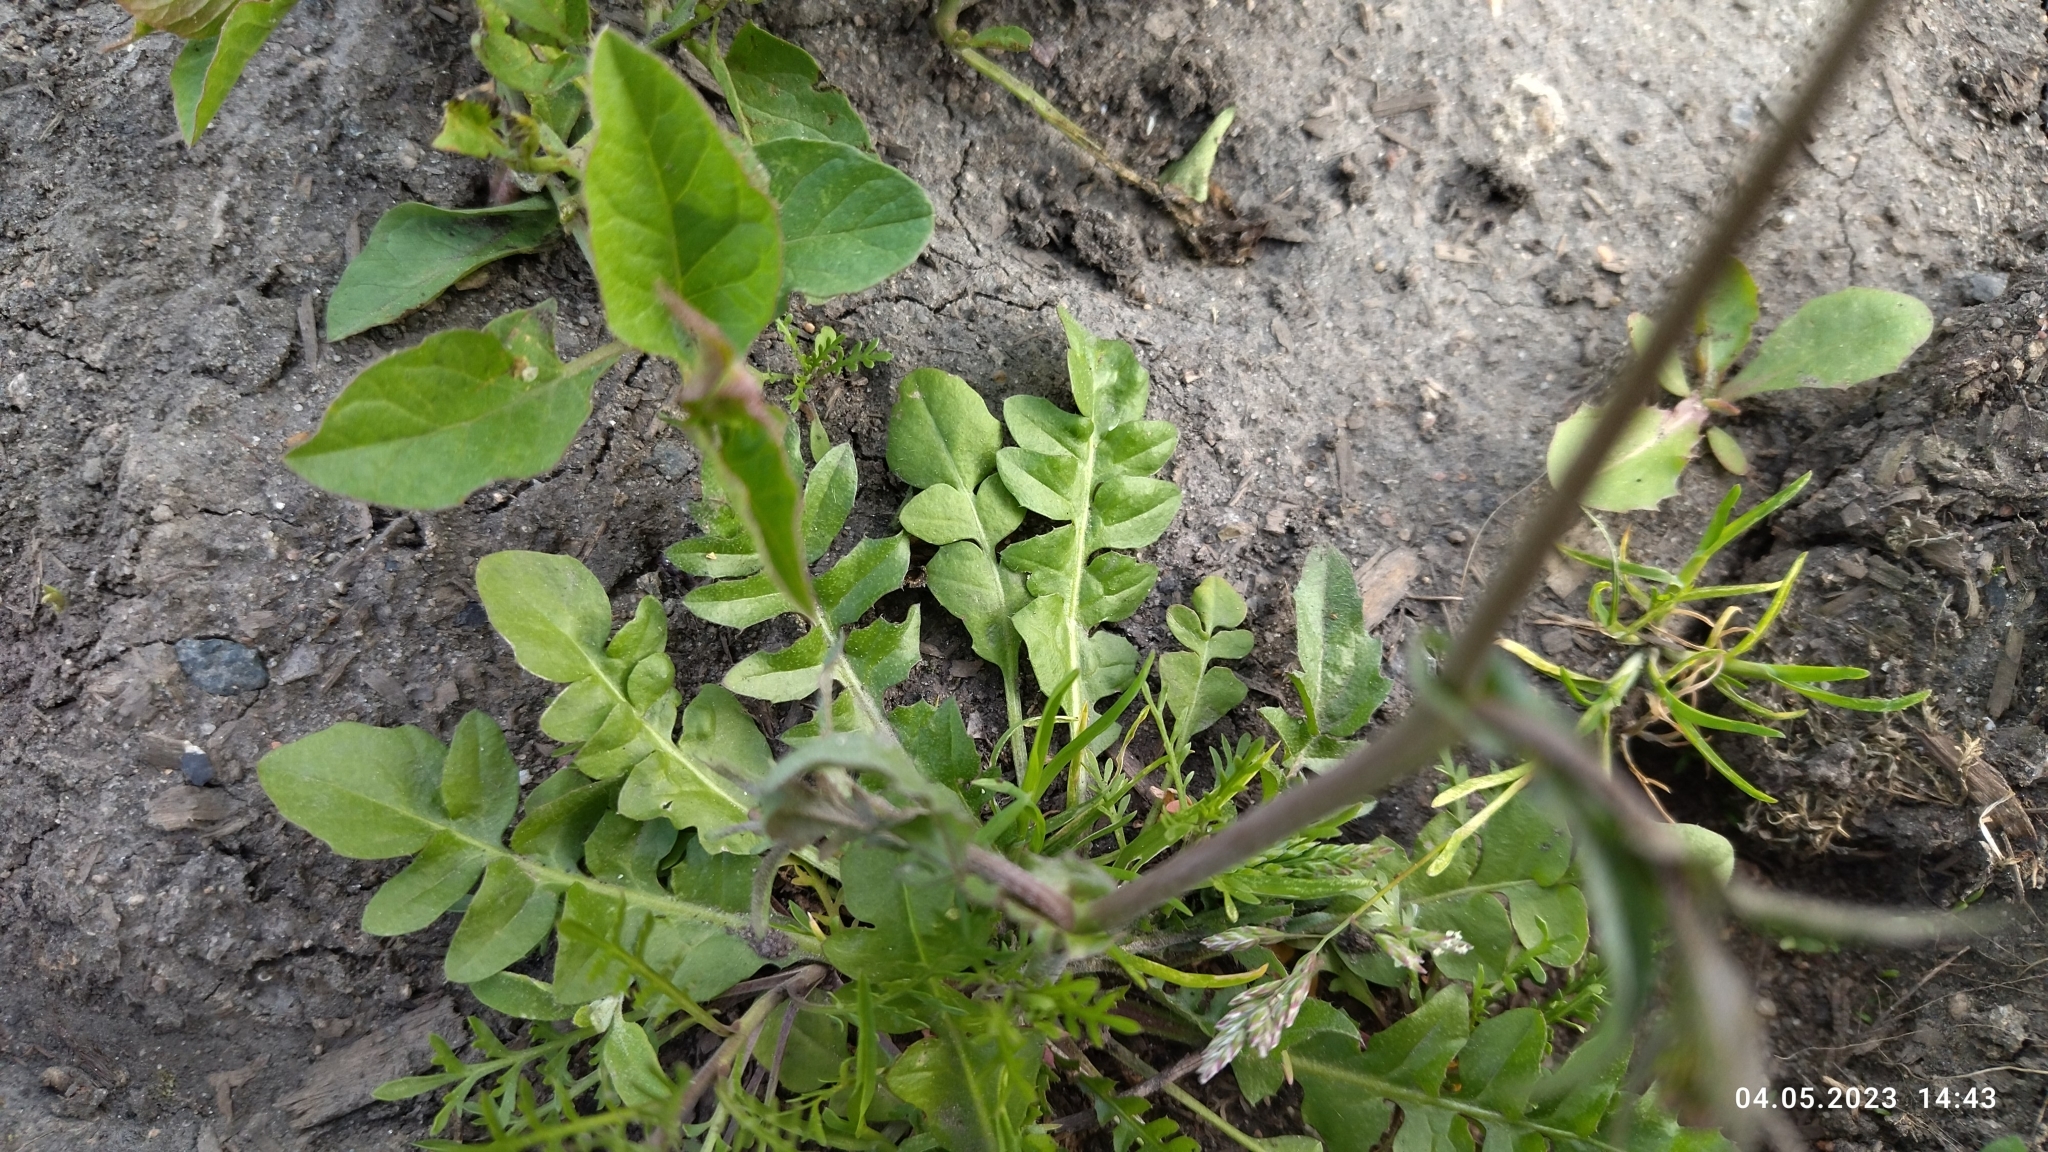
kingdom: Plantae
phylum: Tracheophyta
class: Magnoliopsida
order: Brassicales
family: Brassicaceae
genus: Capsella
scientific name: Capsella bursa-pastoris
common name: Shepherd's purse
